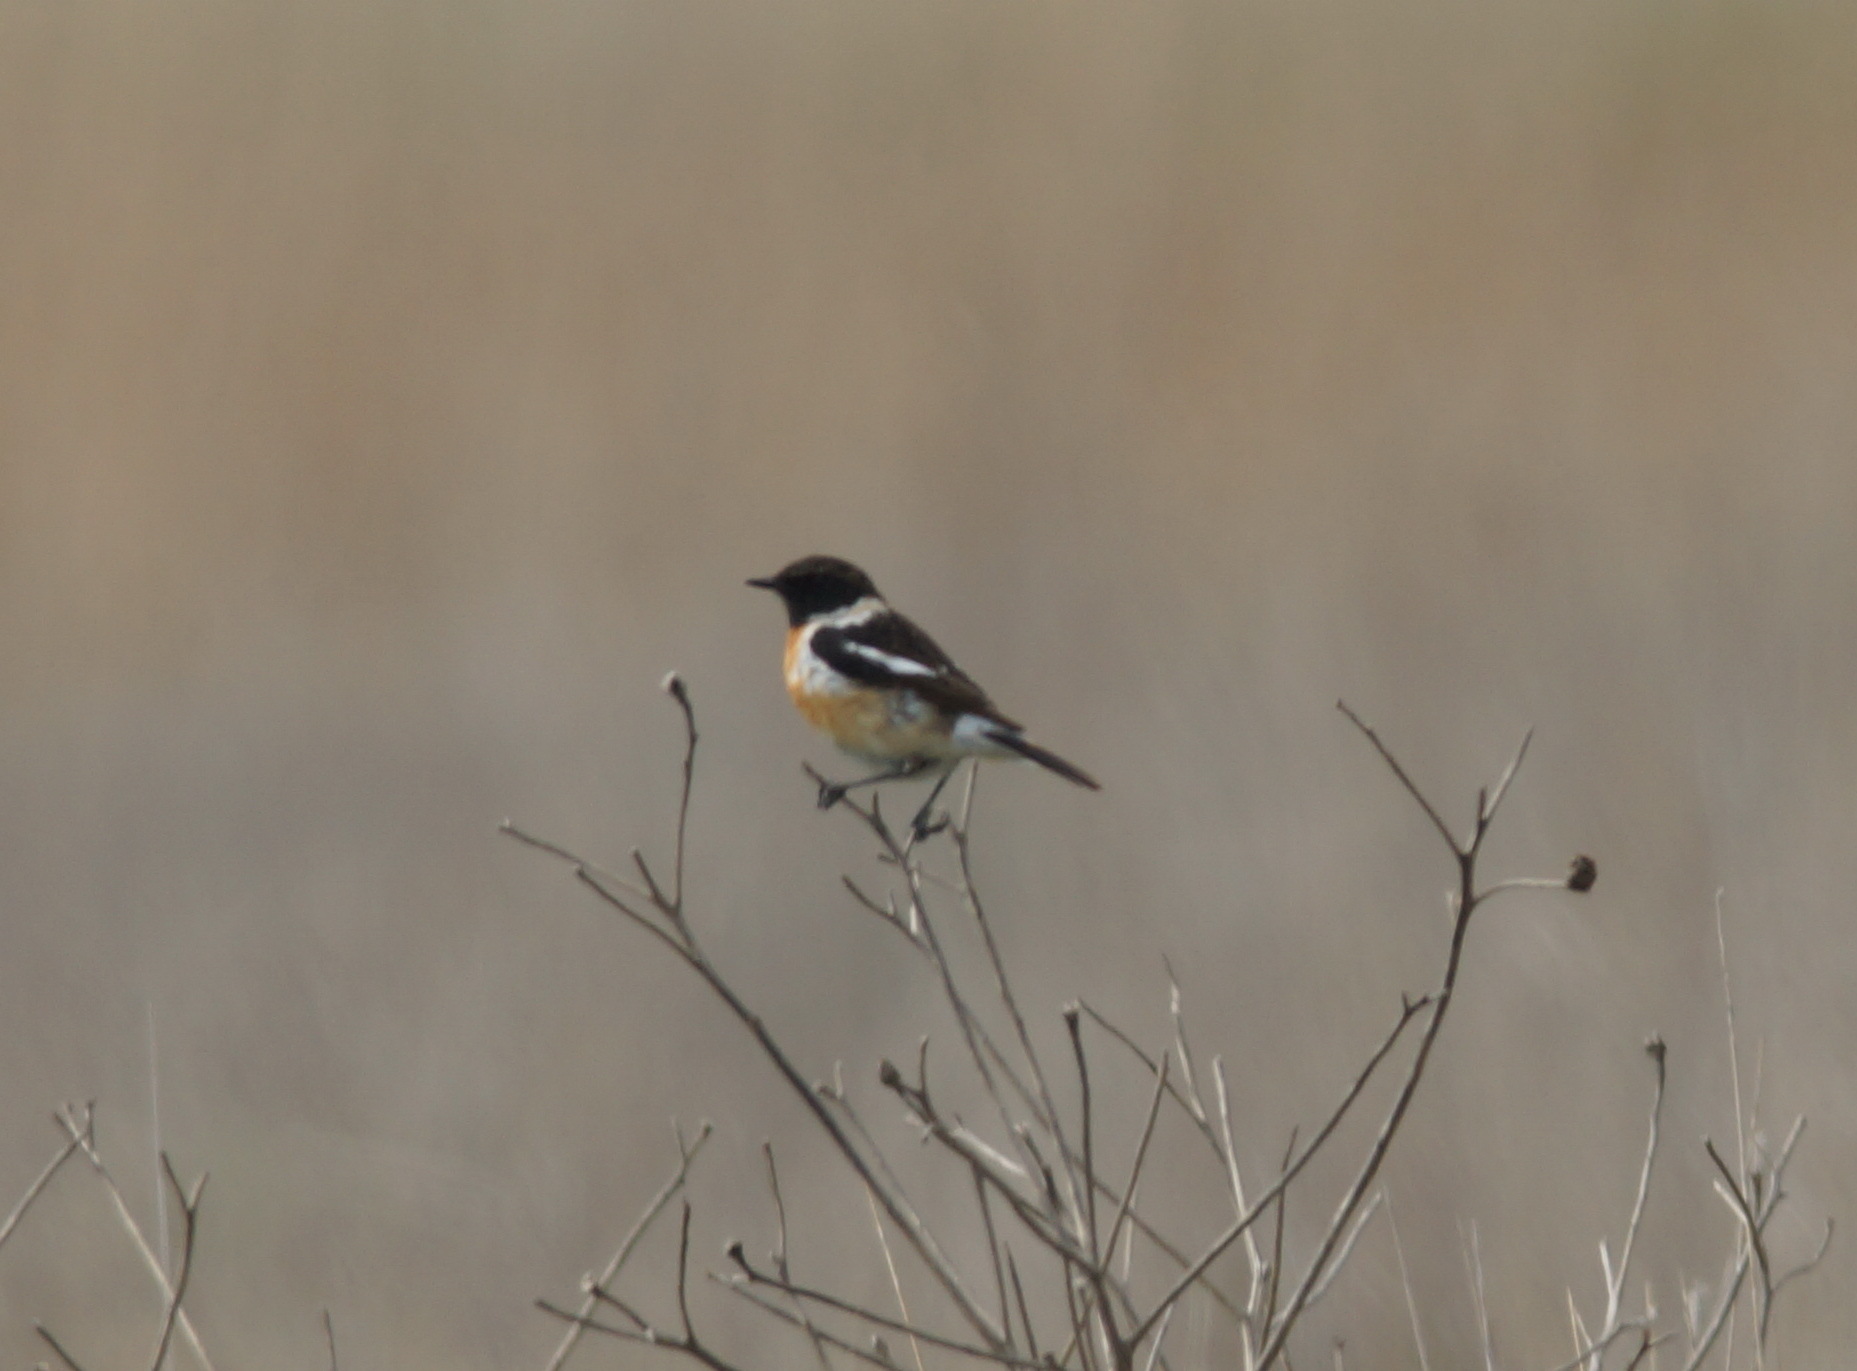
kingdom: Animalia
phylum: Chordata
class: Aves
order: Passeriformes
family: Muscicapidae
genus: Saxicola
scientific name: Saxicola maurus
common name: Siberian stonechat
